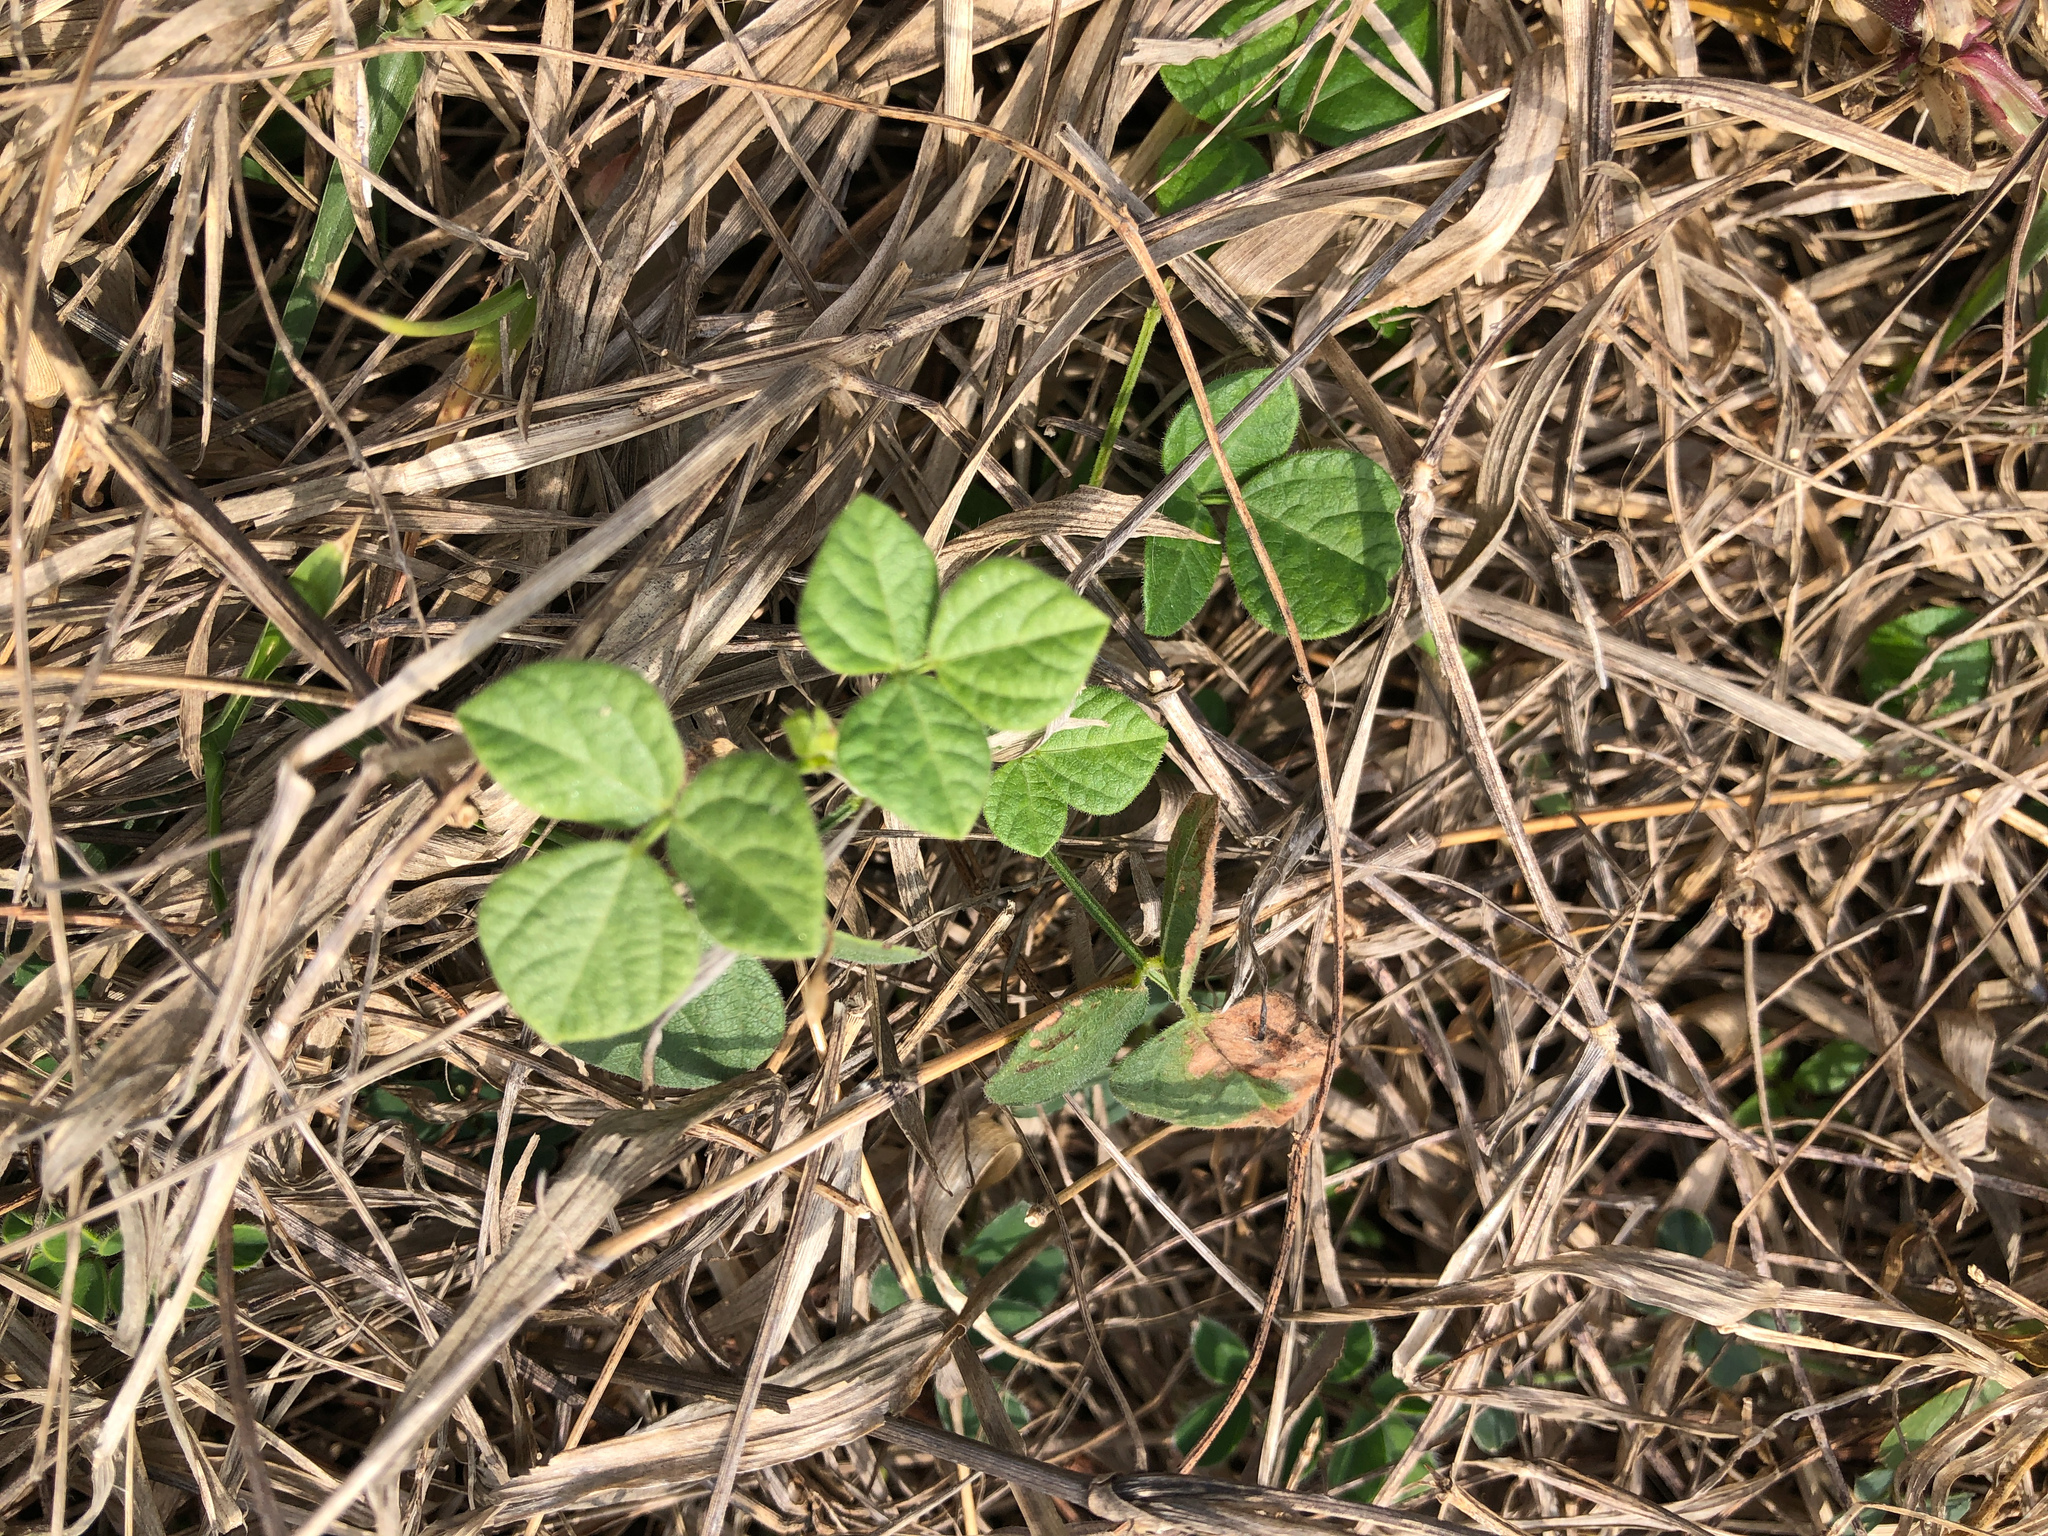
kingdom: Plantae
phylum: Tracheophyta
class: Magnoliopsida
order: Fabales
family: Fabaceae
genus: Rhynchosia
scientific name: Rhynchosia minima
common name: Least snoutbean
